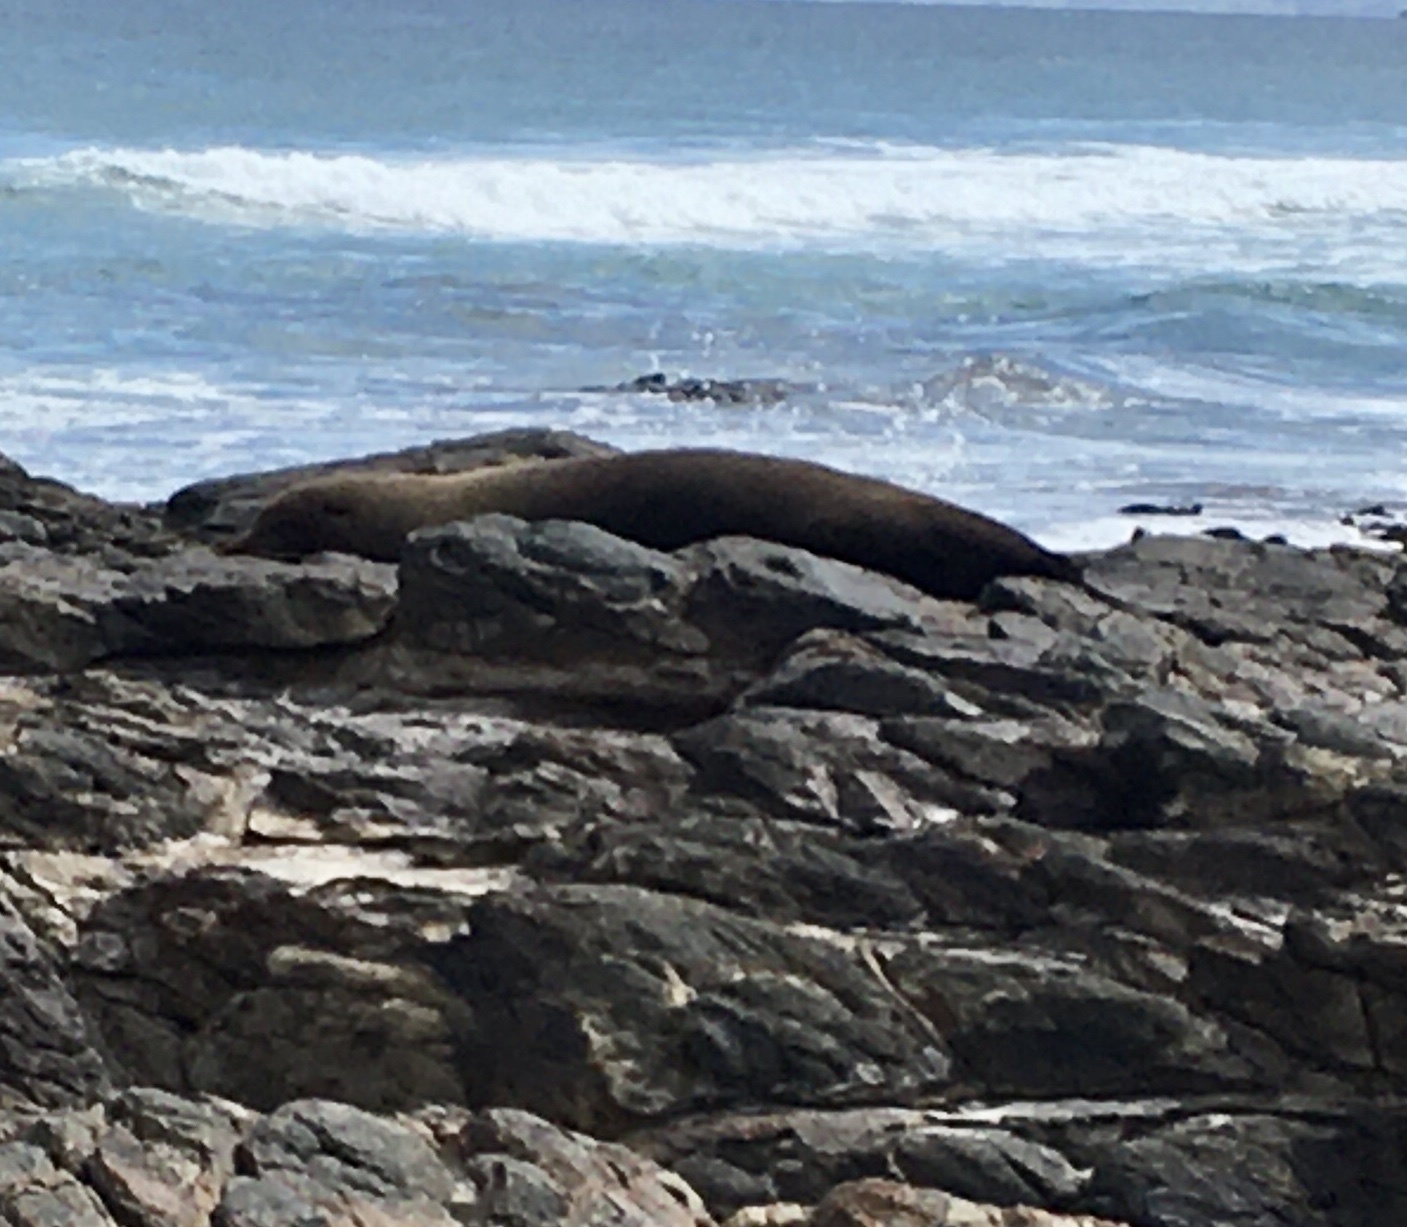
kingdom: Animalia
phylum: Chordata
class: Mammalia
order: Carnivora
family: Otariidae
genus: Arctocephalus
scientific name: Arctocephalus forsteri
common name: New zealand fur seal
